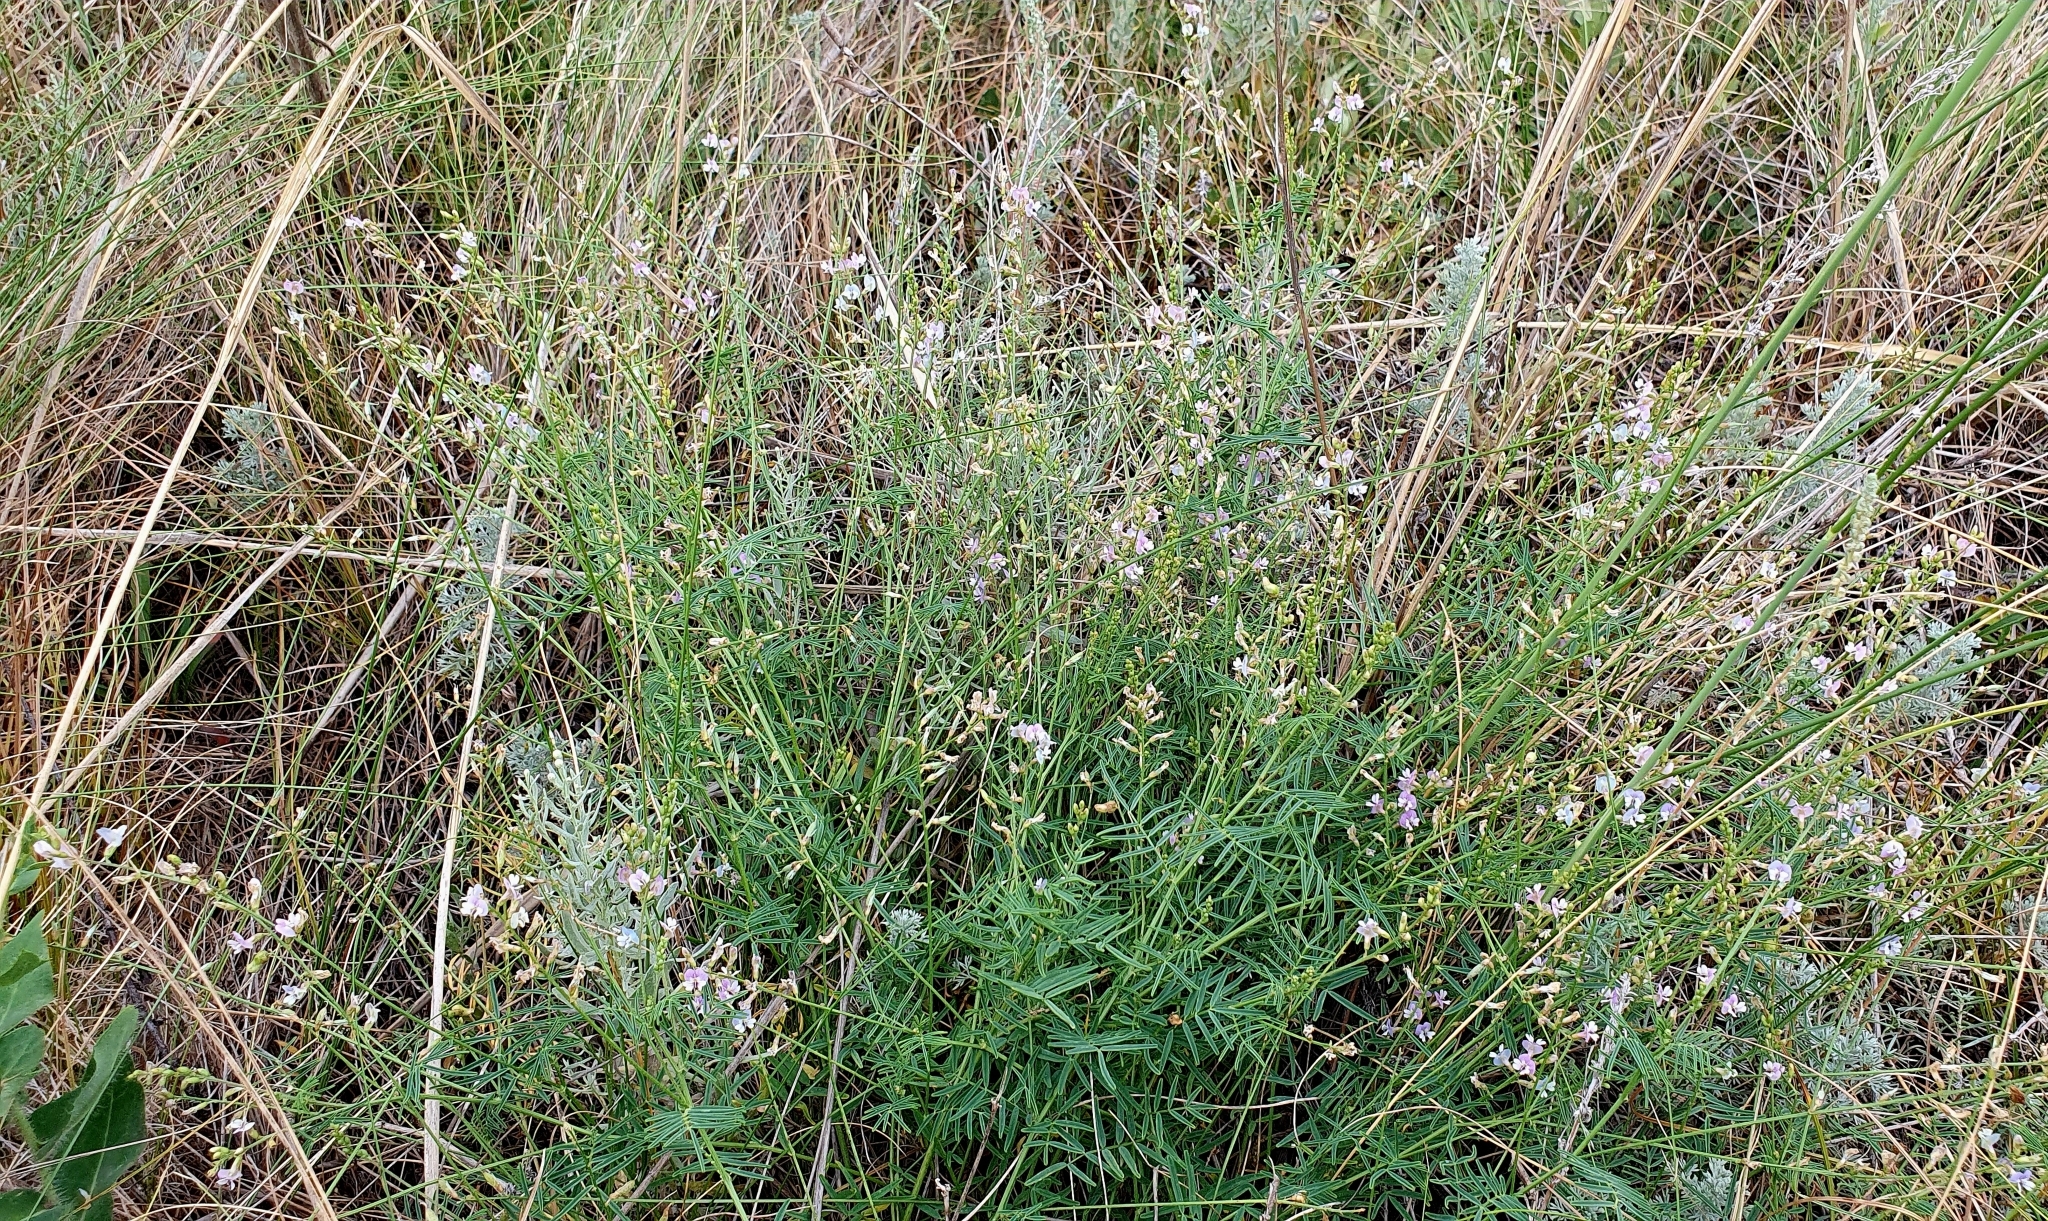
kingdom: Plantae
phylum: Tracheophyta
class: Magnoliopsida
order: Fabales
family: Fabaceae
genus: Astragalus
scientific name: Astragalus austriacus
